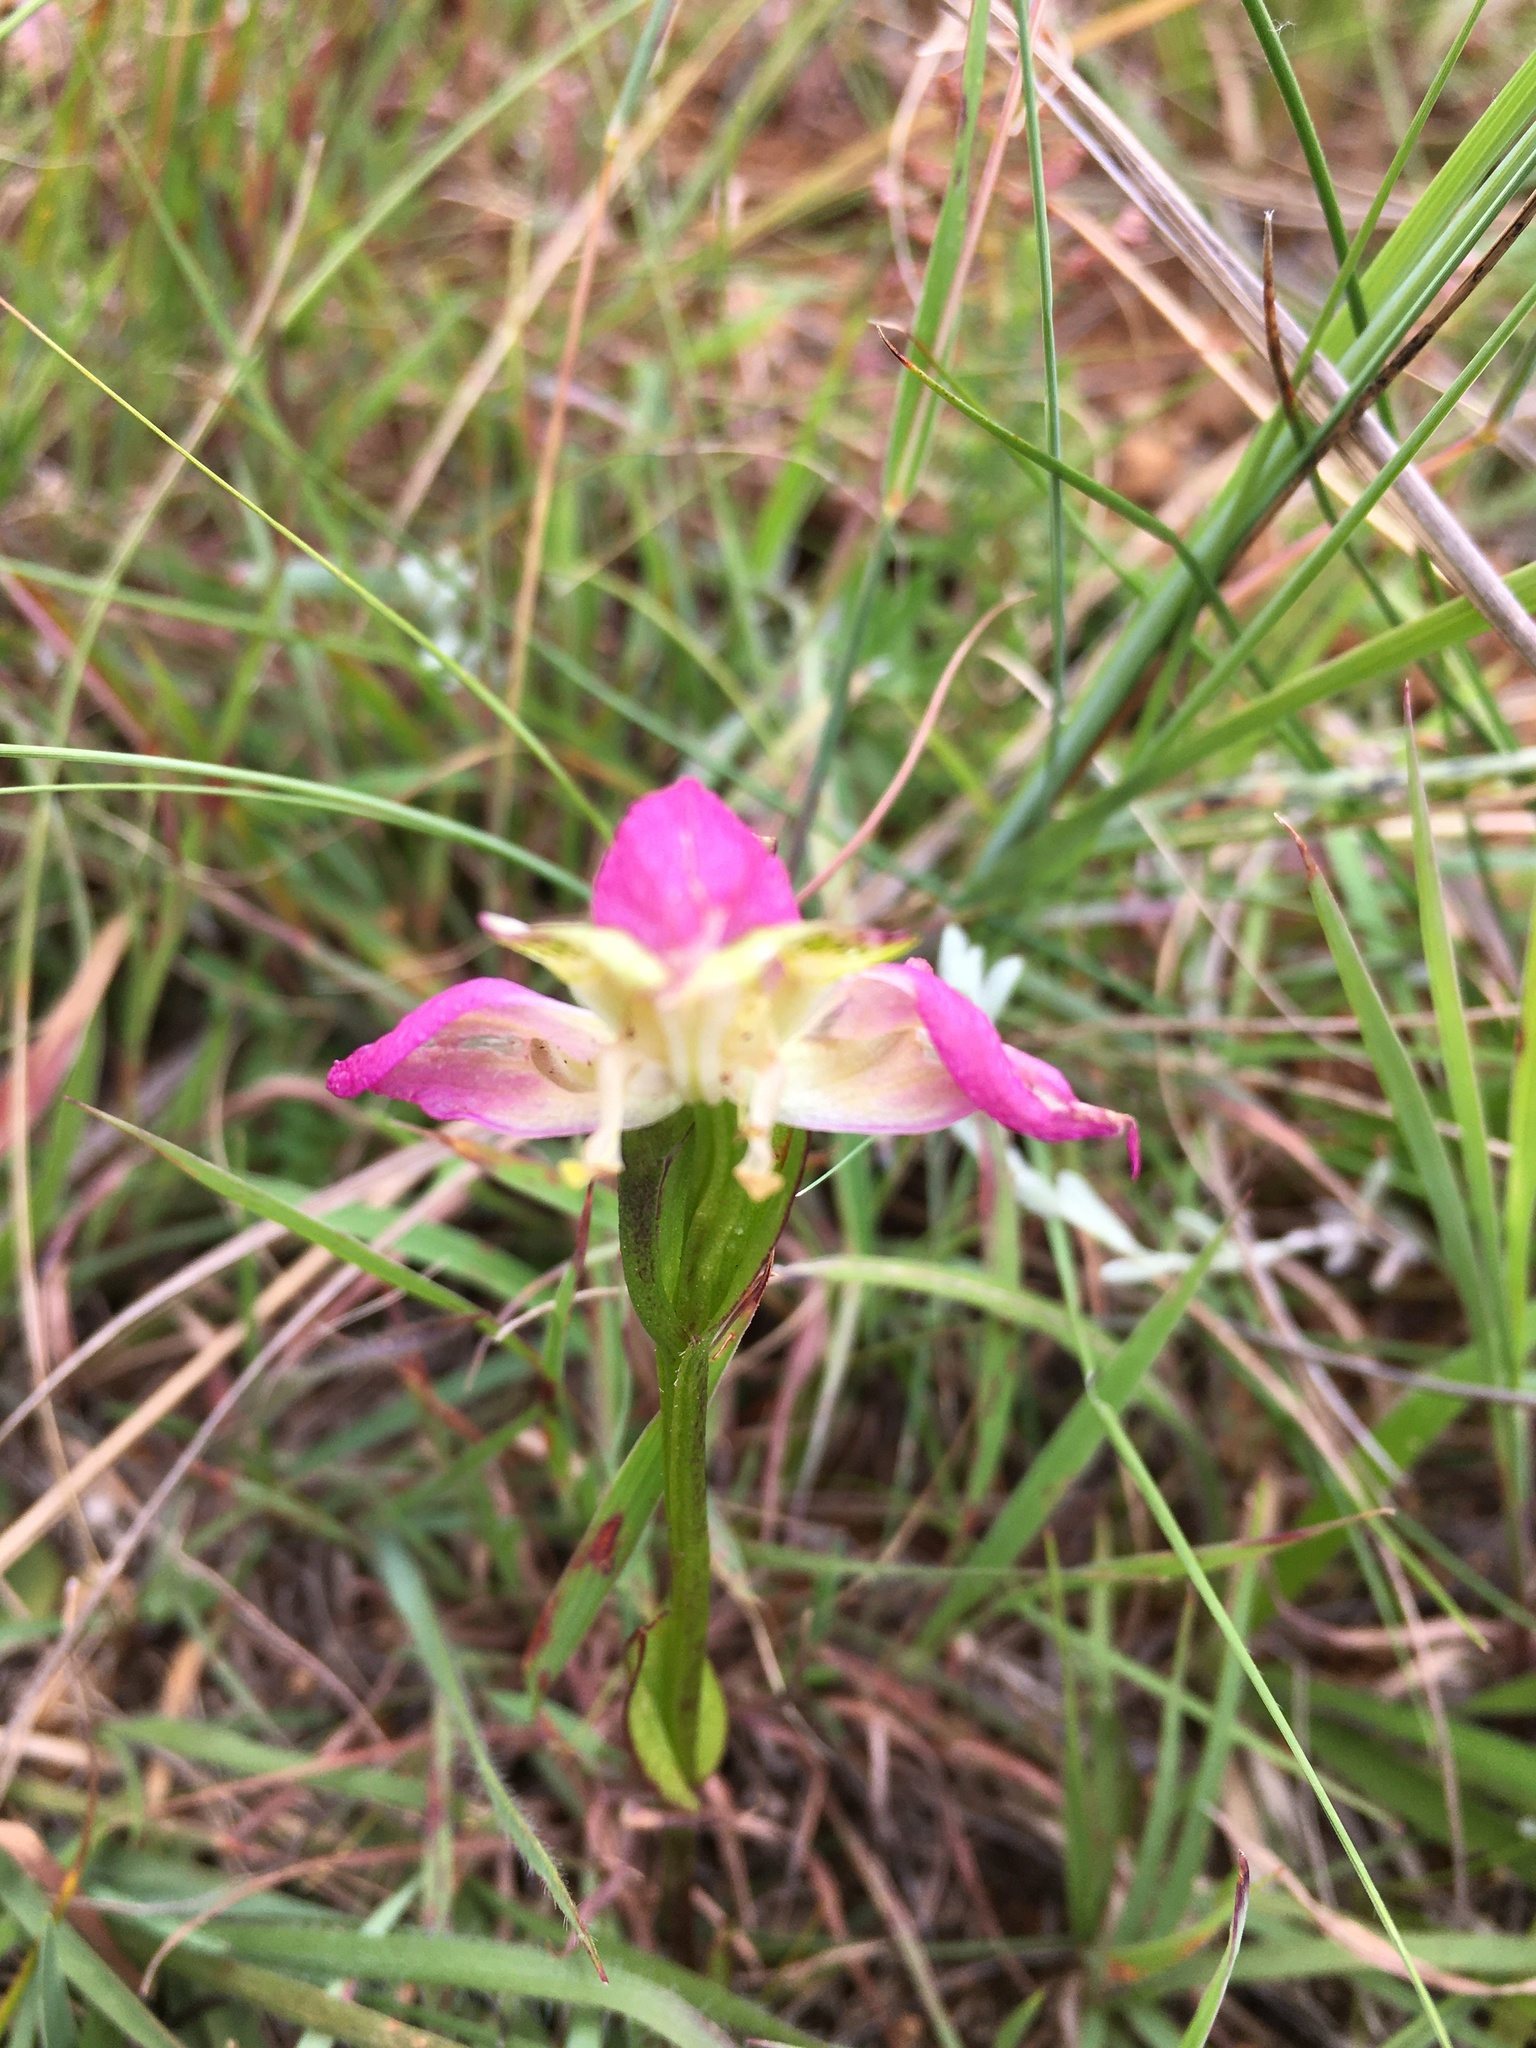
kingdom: Plantae
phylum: Tracheophyta
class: Liliopsida
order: Asparagales
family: Orchidaceae
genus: Disperis
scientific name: Disperis oxyglossa
